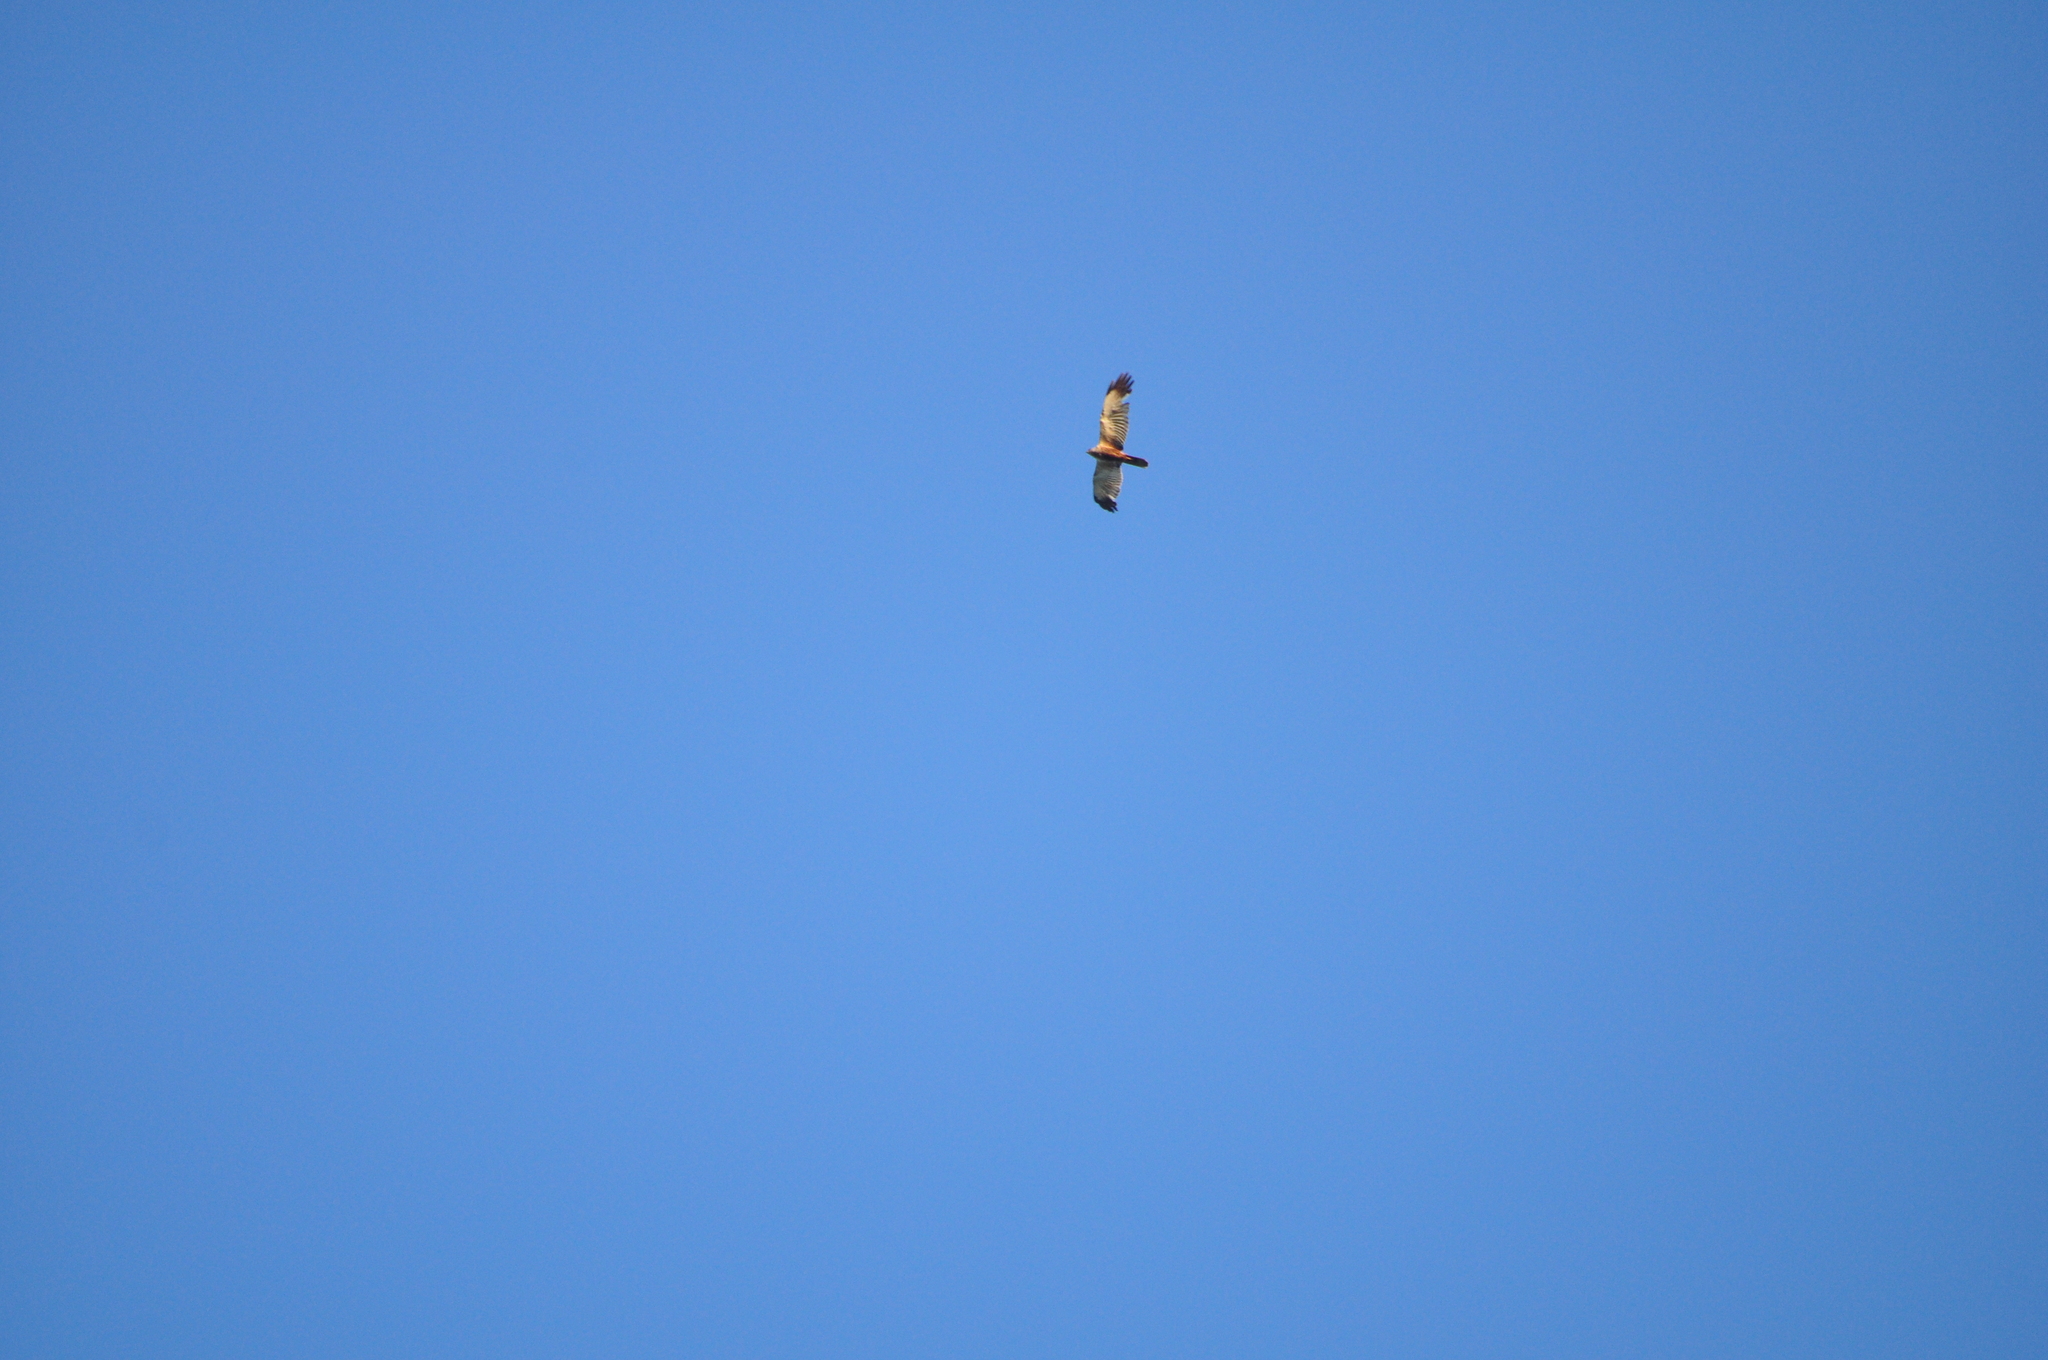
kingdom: Animalia
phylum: Chordata
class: Aves
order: Accipitriformes
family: Accipitridae
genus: Circus
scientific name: Circus aeruginosus
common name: Western marsh harrier
